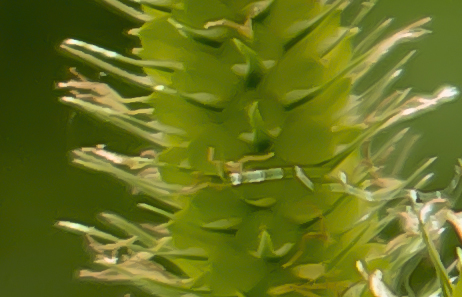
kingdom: Plantae
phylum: Tracheophyta
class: Liliopsida
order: Poales
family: Cyperaceae
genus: Carex
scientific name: Carex crinita
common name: Fringed sedge
